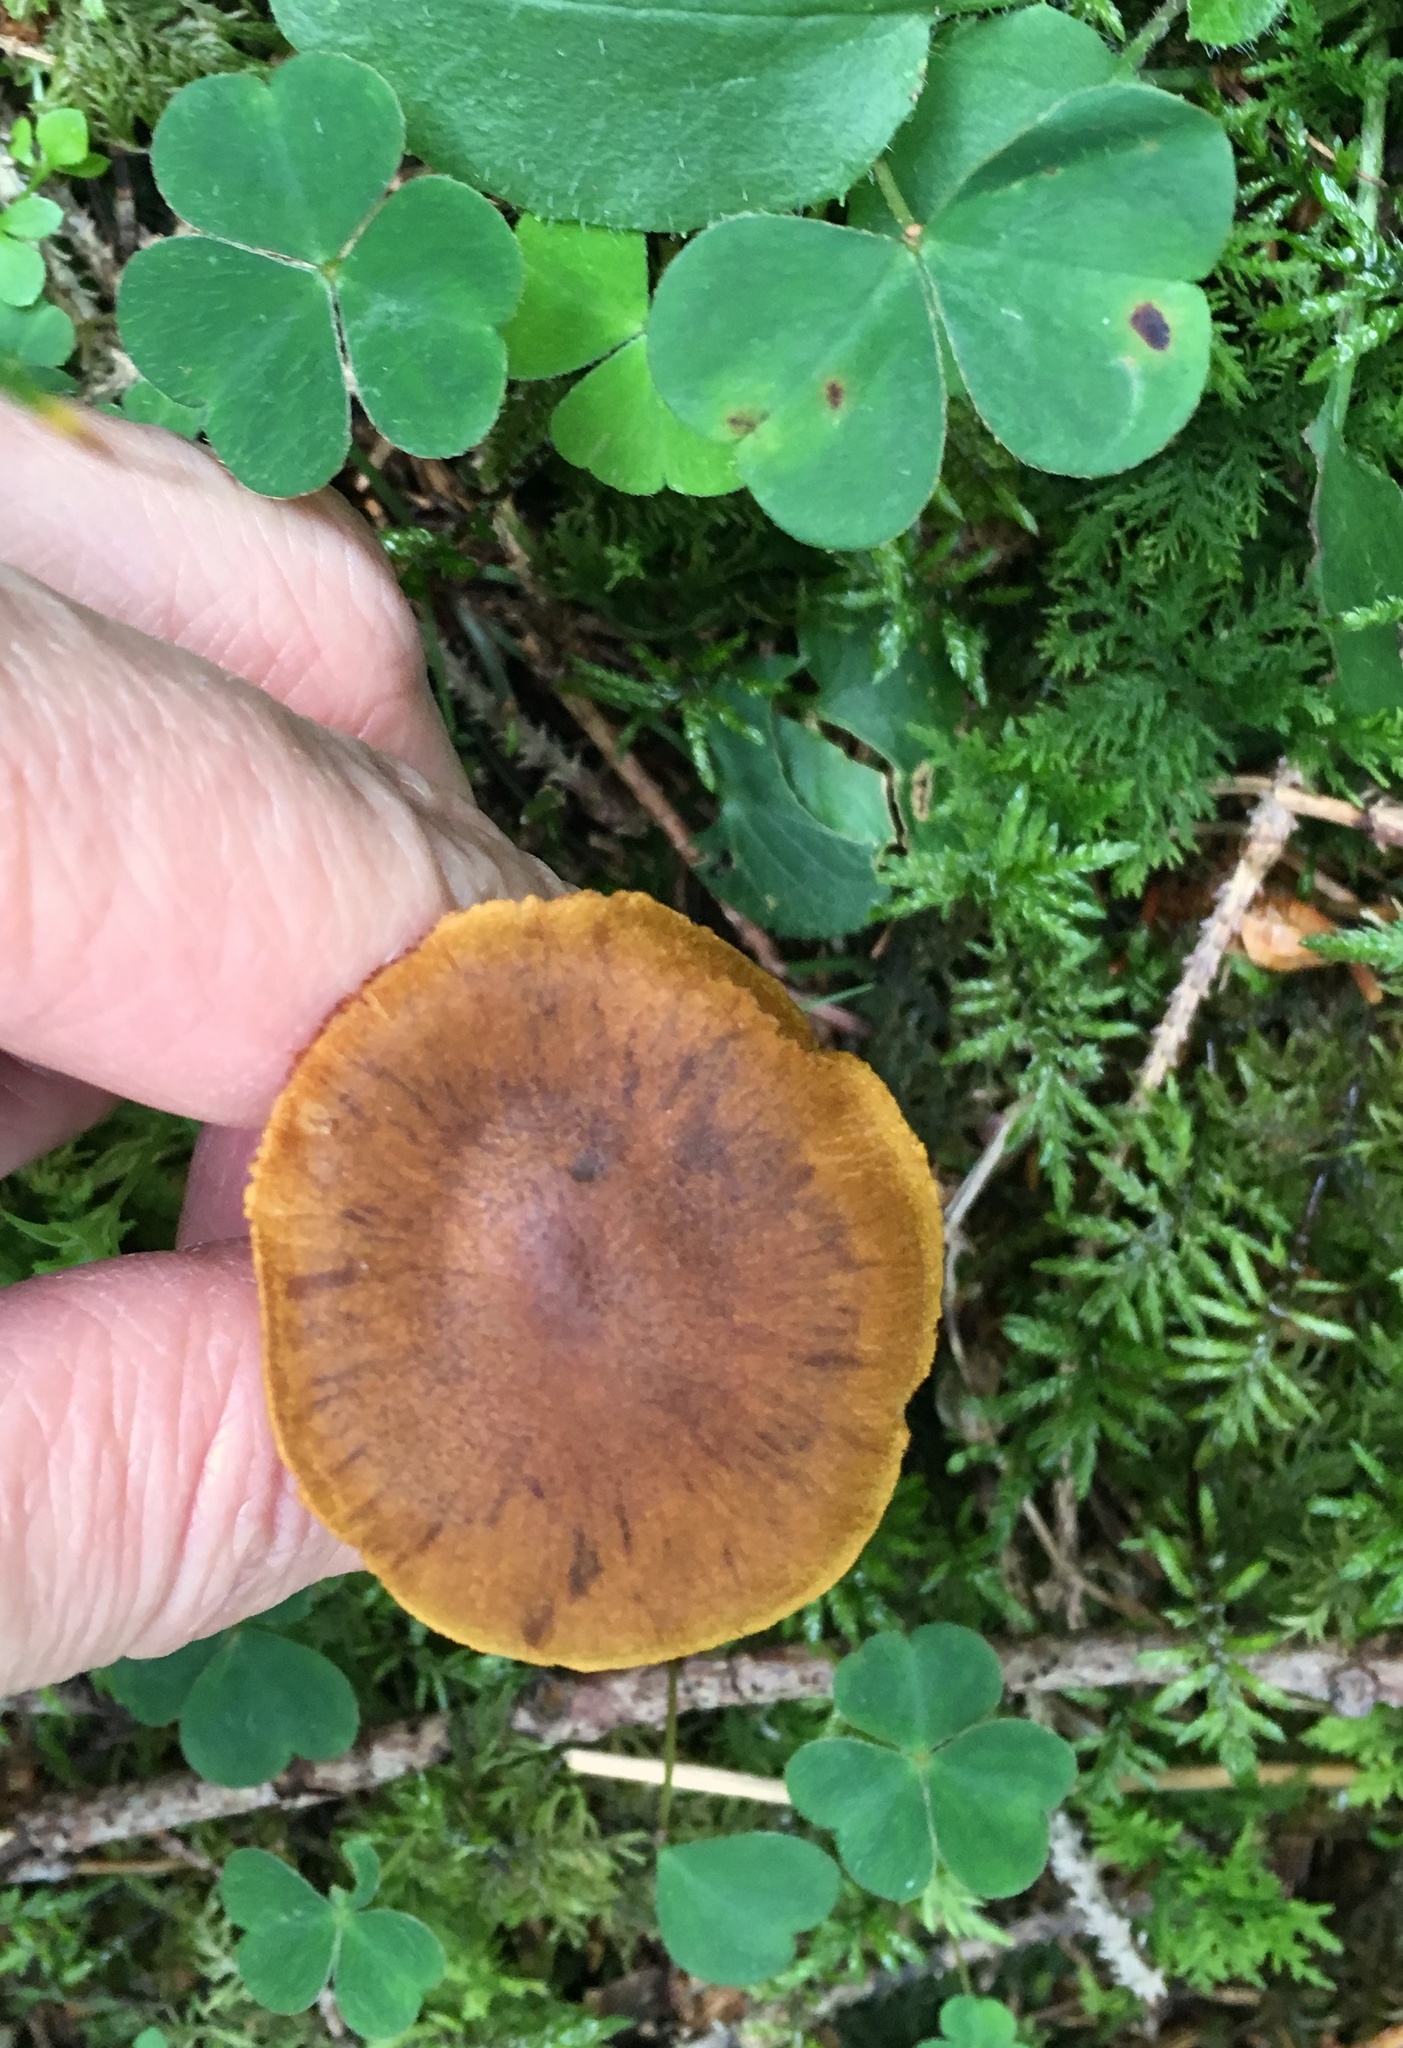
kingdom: Fungi
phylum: Basidiomycota
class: Agaricomycetes
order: Agaricales
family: Cortinariaceae
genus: Cortinarius
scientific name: Cortinarius malicorius
